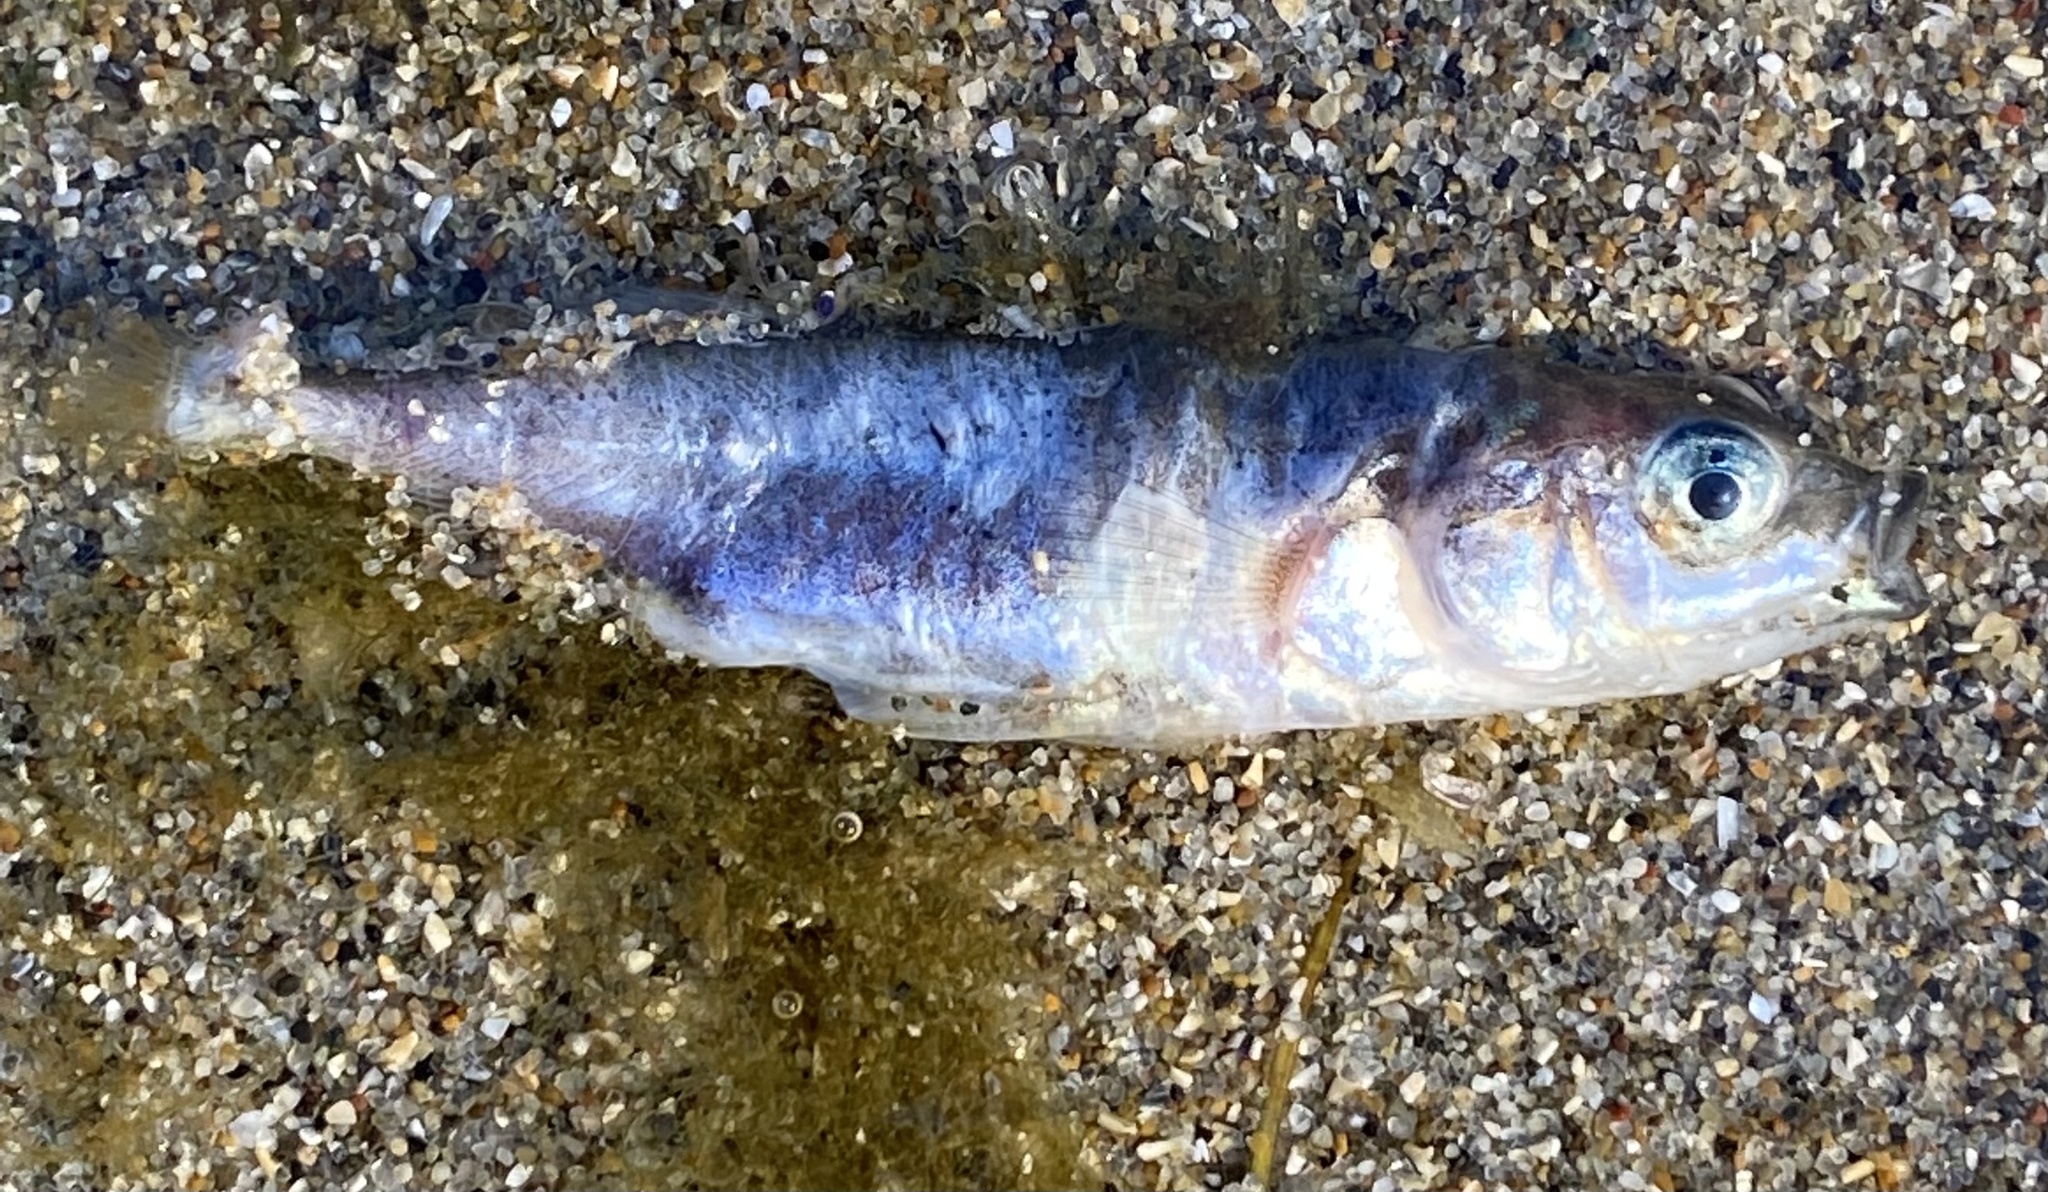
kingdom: Animalia
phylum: Chordata
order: Gasterosteiformes
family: Gasterosteidae
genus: Gasterosteus
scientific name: Gasterosteus aculeatus
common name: Three-spined stickleback
